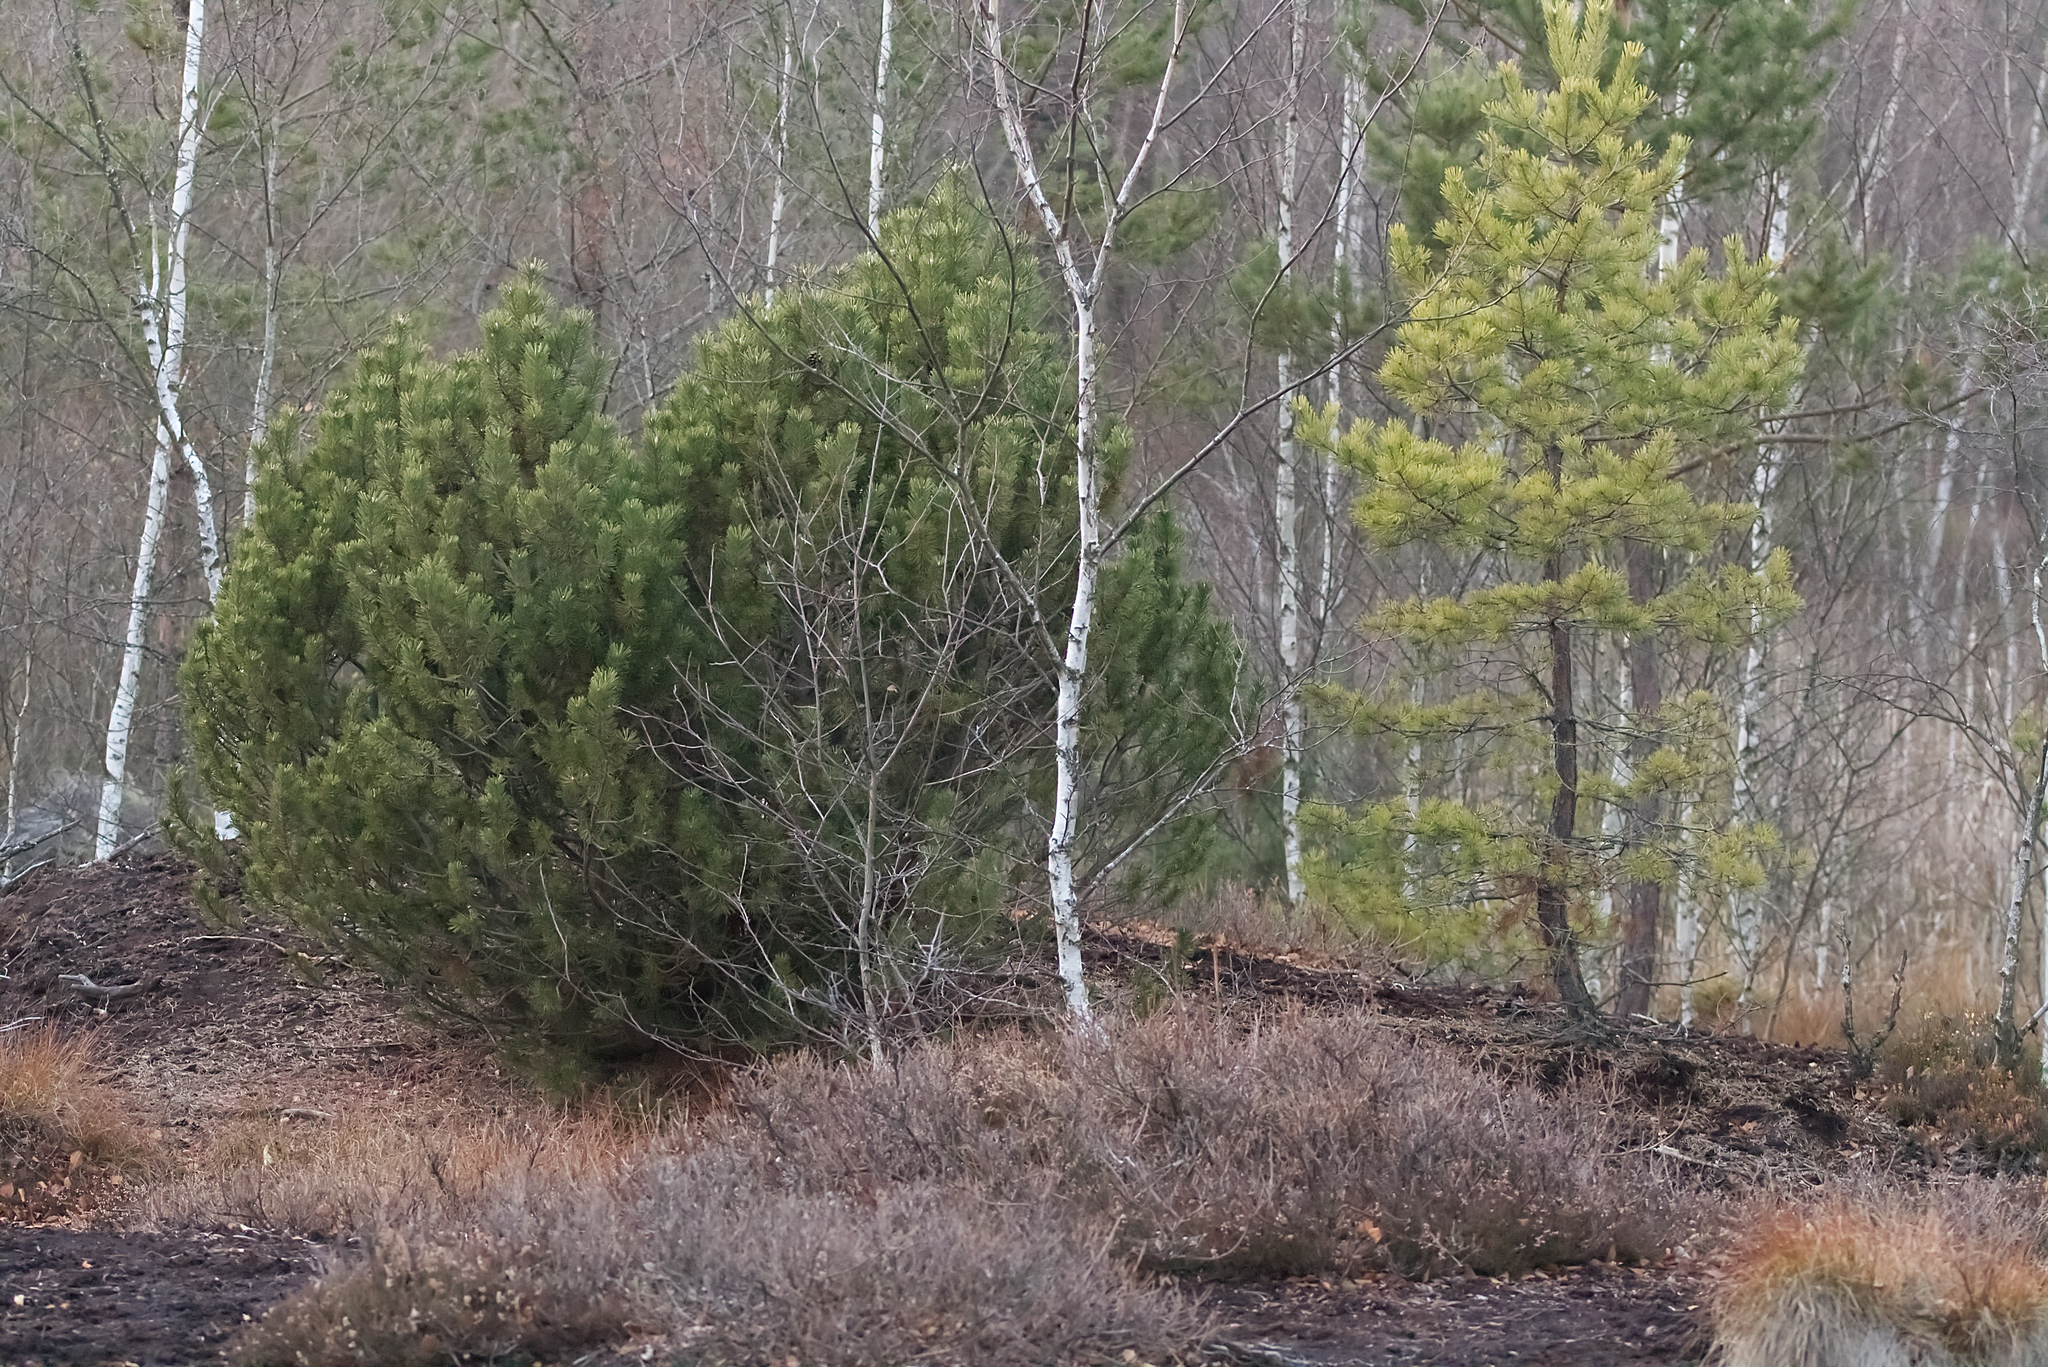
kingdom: Plantae
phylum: Tracheophyta
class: Pinopsida
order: Pinales
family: Pinaceae
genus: Pinus
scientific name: Pinus uncinata
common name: Mountain pine
